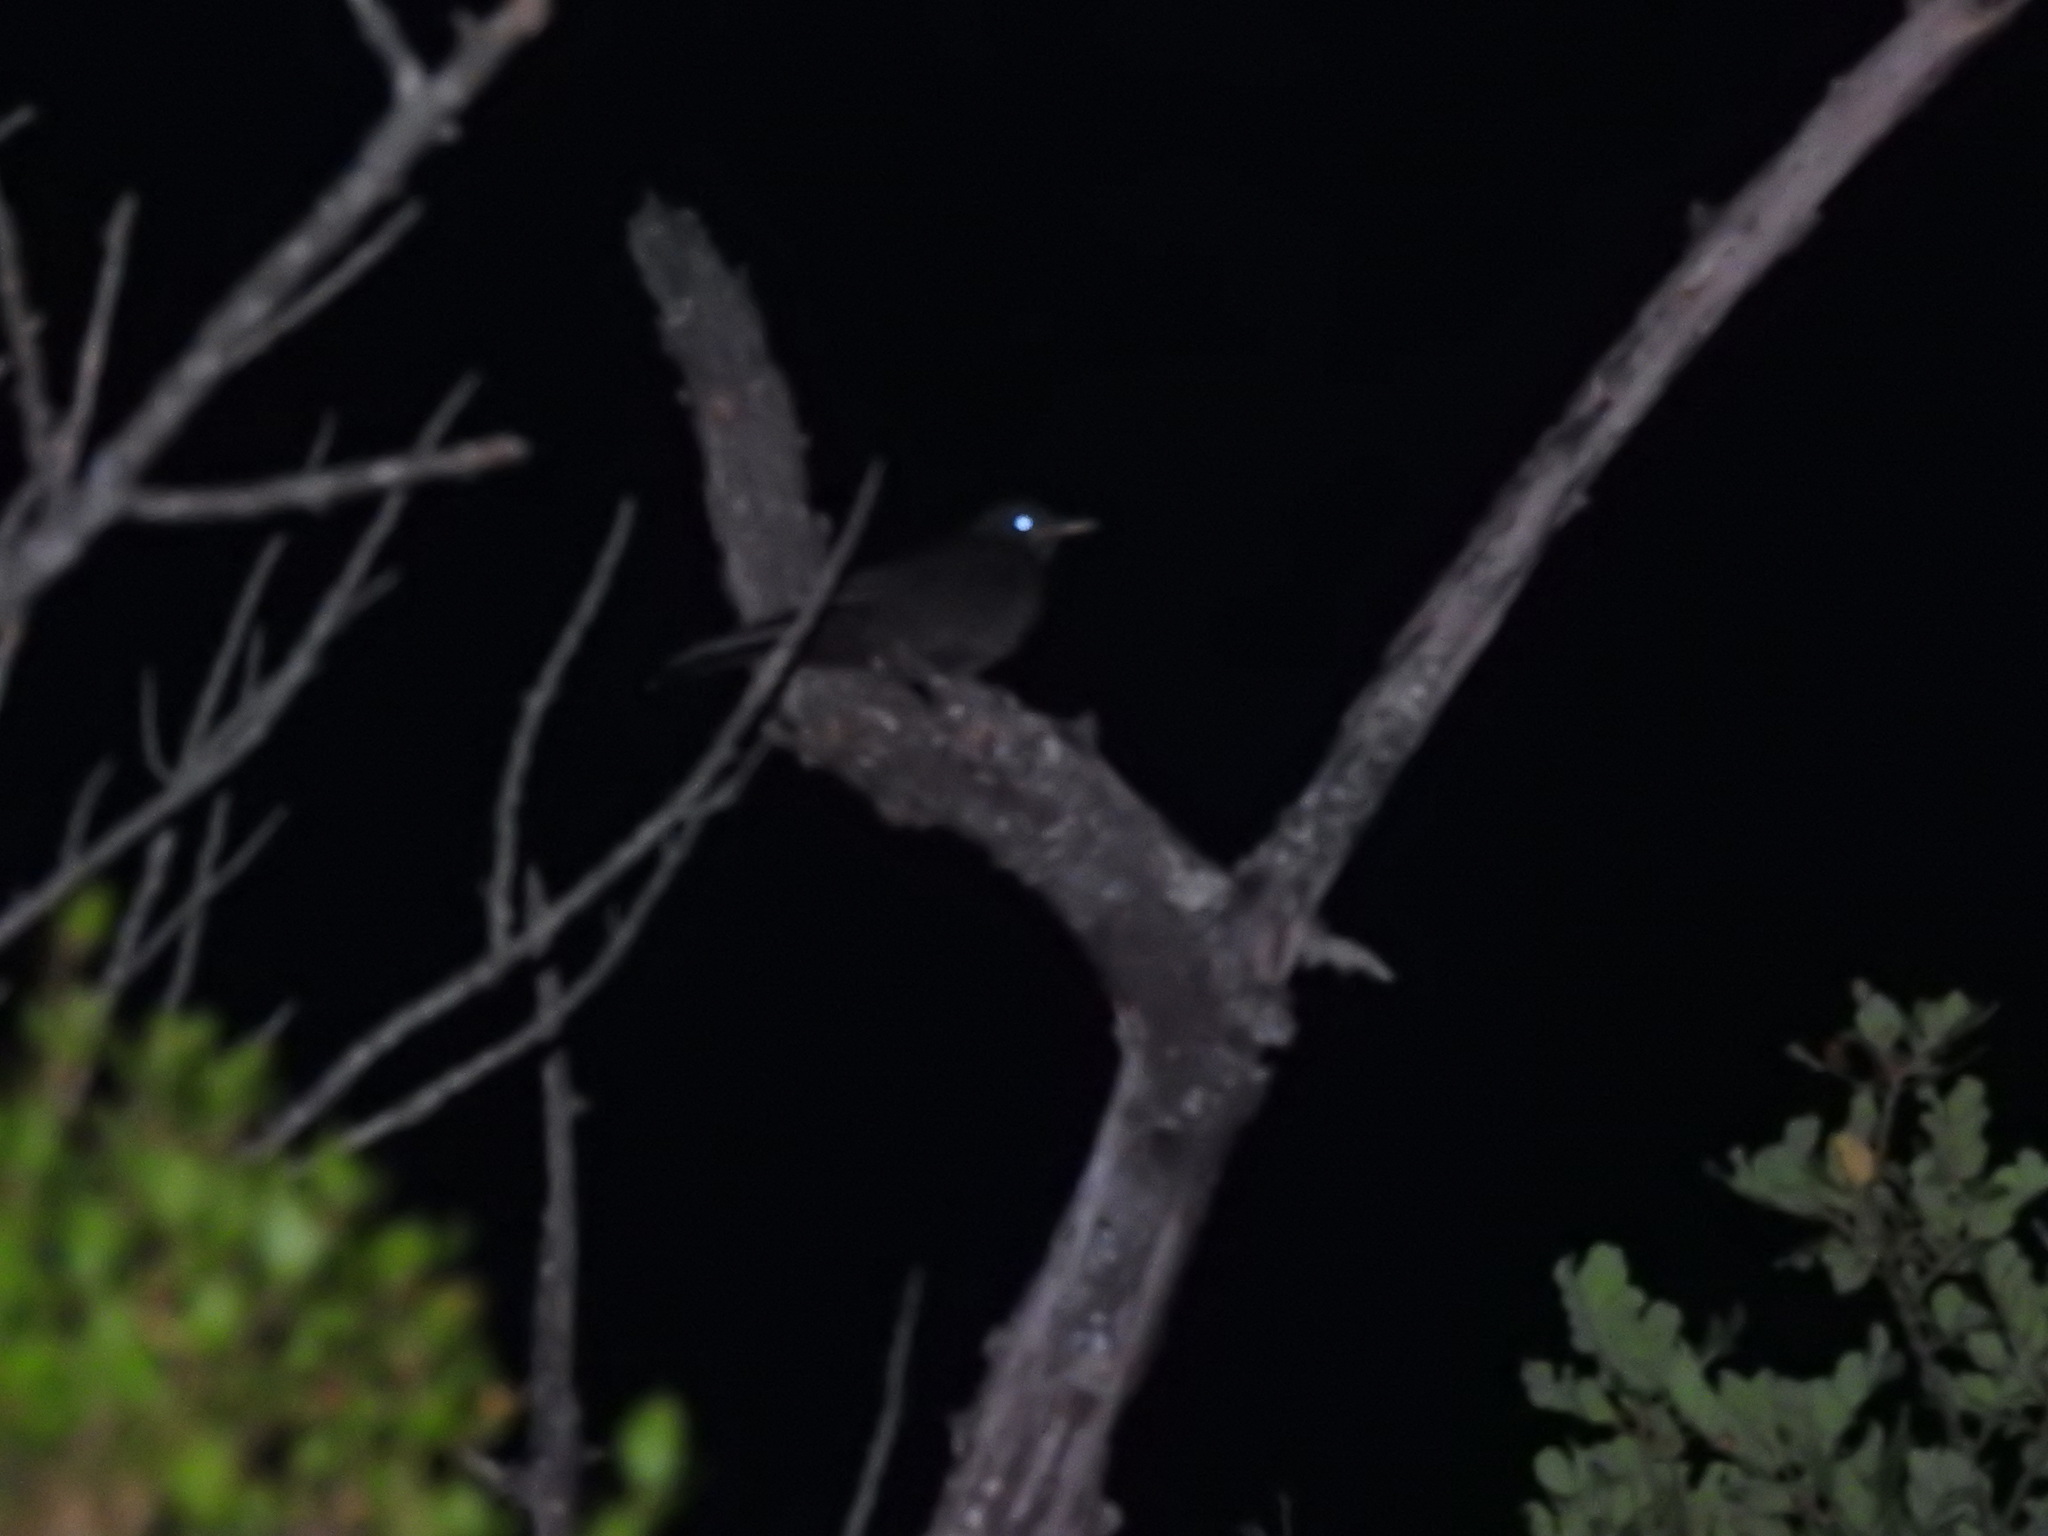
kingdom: Animalia
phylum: Chordata
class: Aves
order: Passeriformes
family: Turdidae
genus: Turdus
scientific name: Turdus merula
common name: Common blackbird
